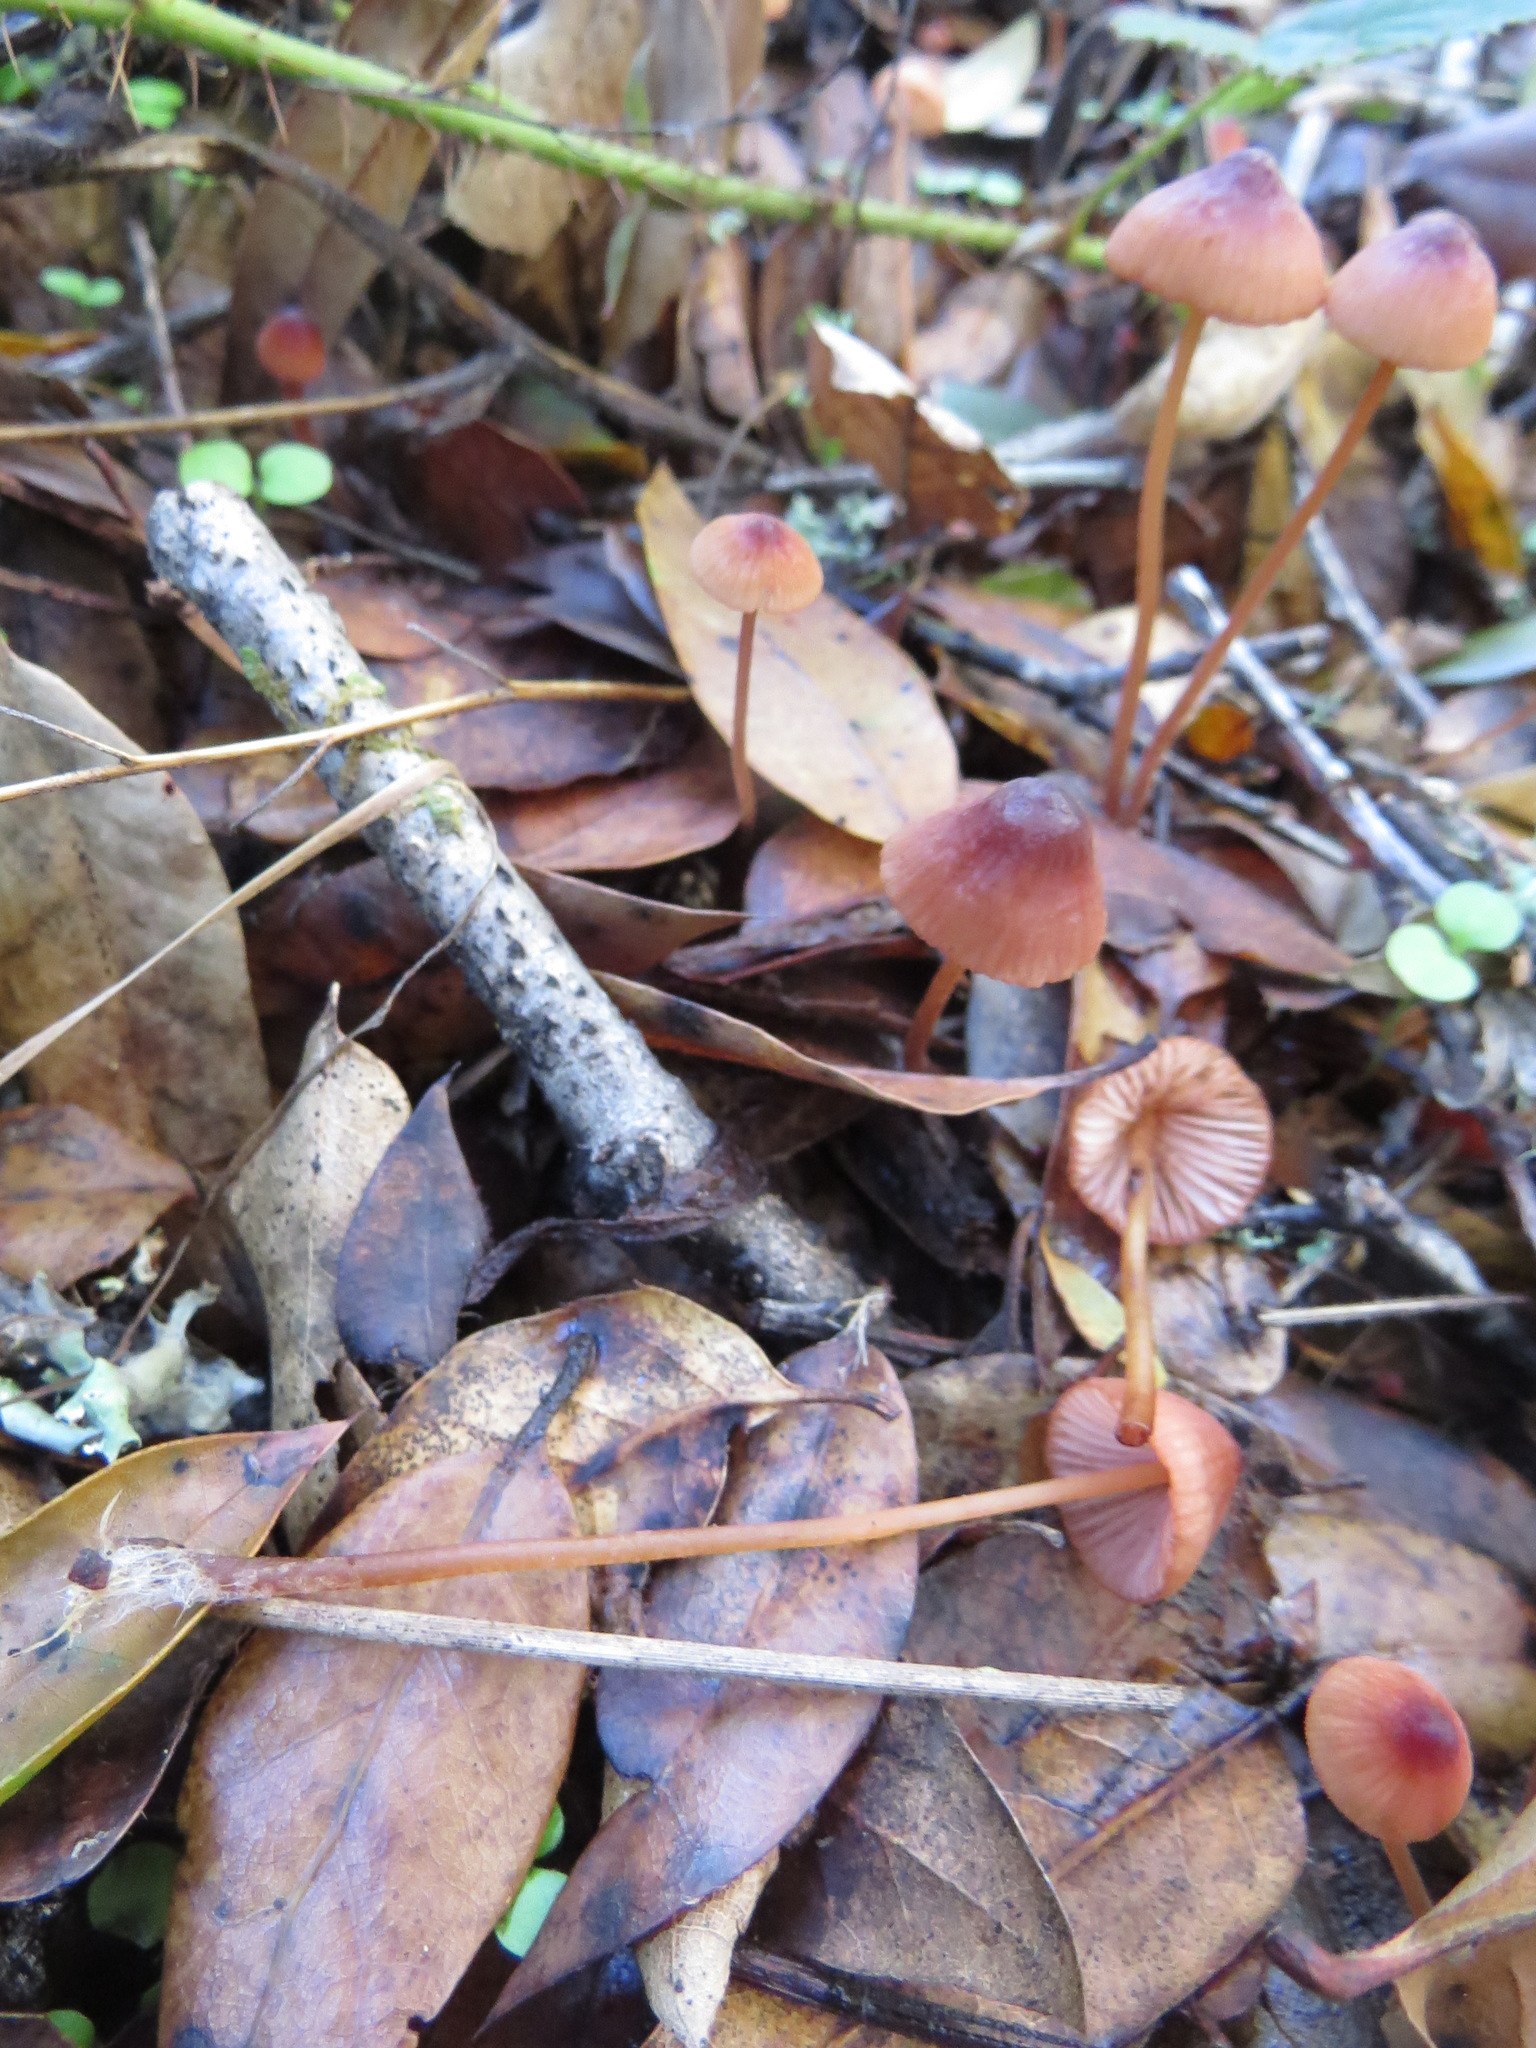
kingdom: Fungi
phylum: Basidiomycota
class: Agaricomycetes
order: Agaricales
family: Mycenaceae
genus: Mycena
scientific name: Mycena
